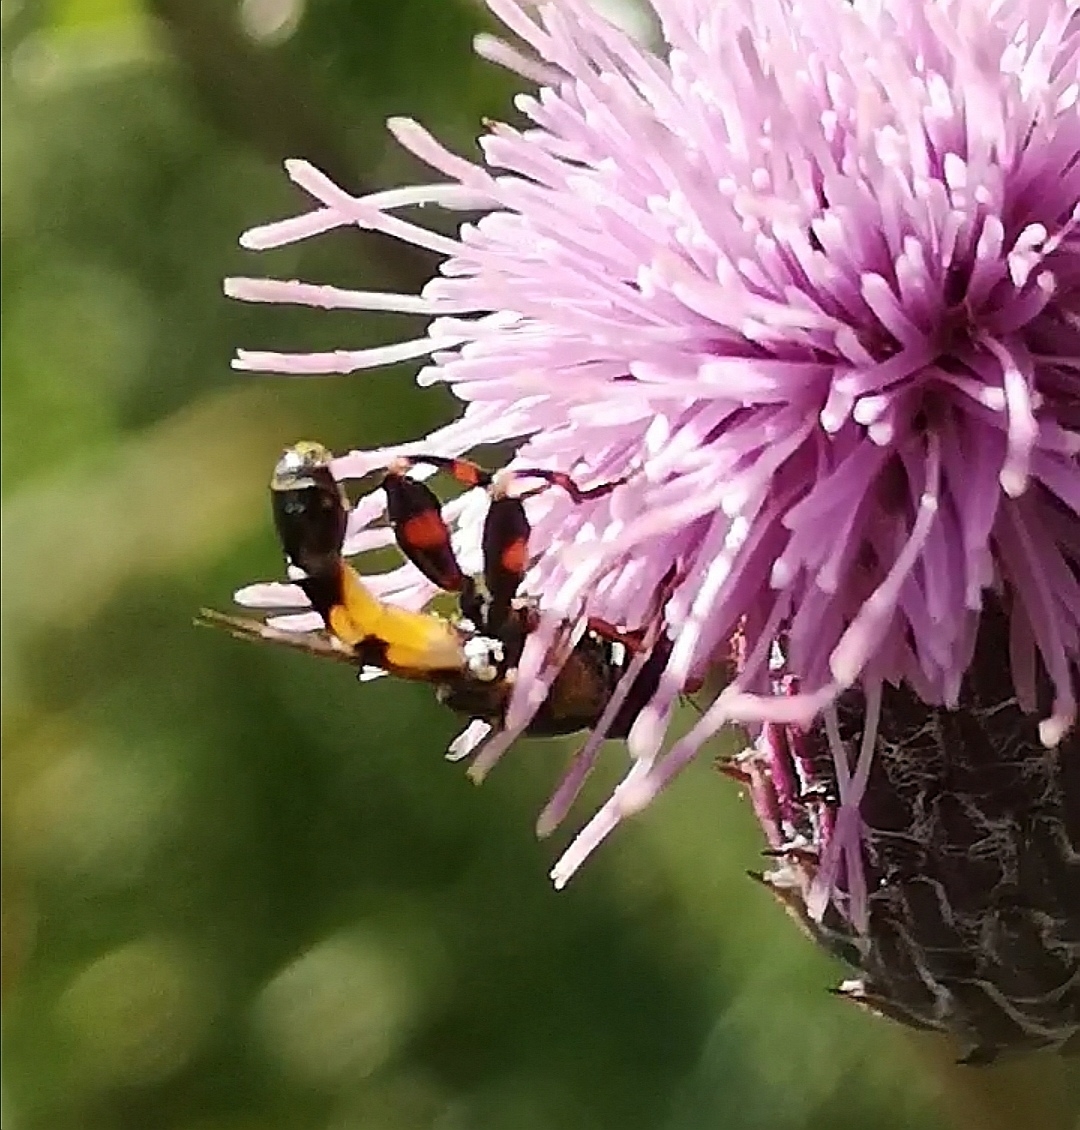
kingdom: Animalia
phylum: Arthropoda
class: Insecta
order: Diptera
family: Syrphidae
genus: Syritta
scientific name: Syritta pipiens
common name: Hover fly
